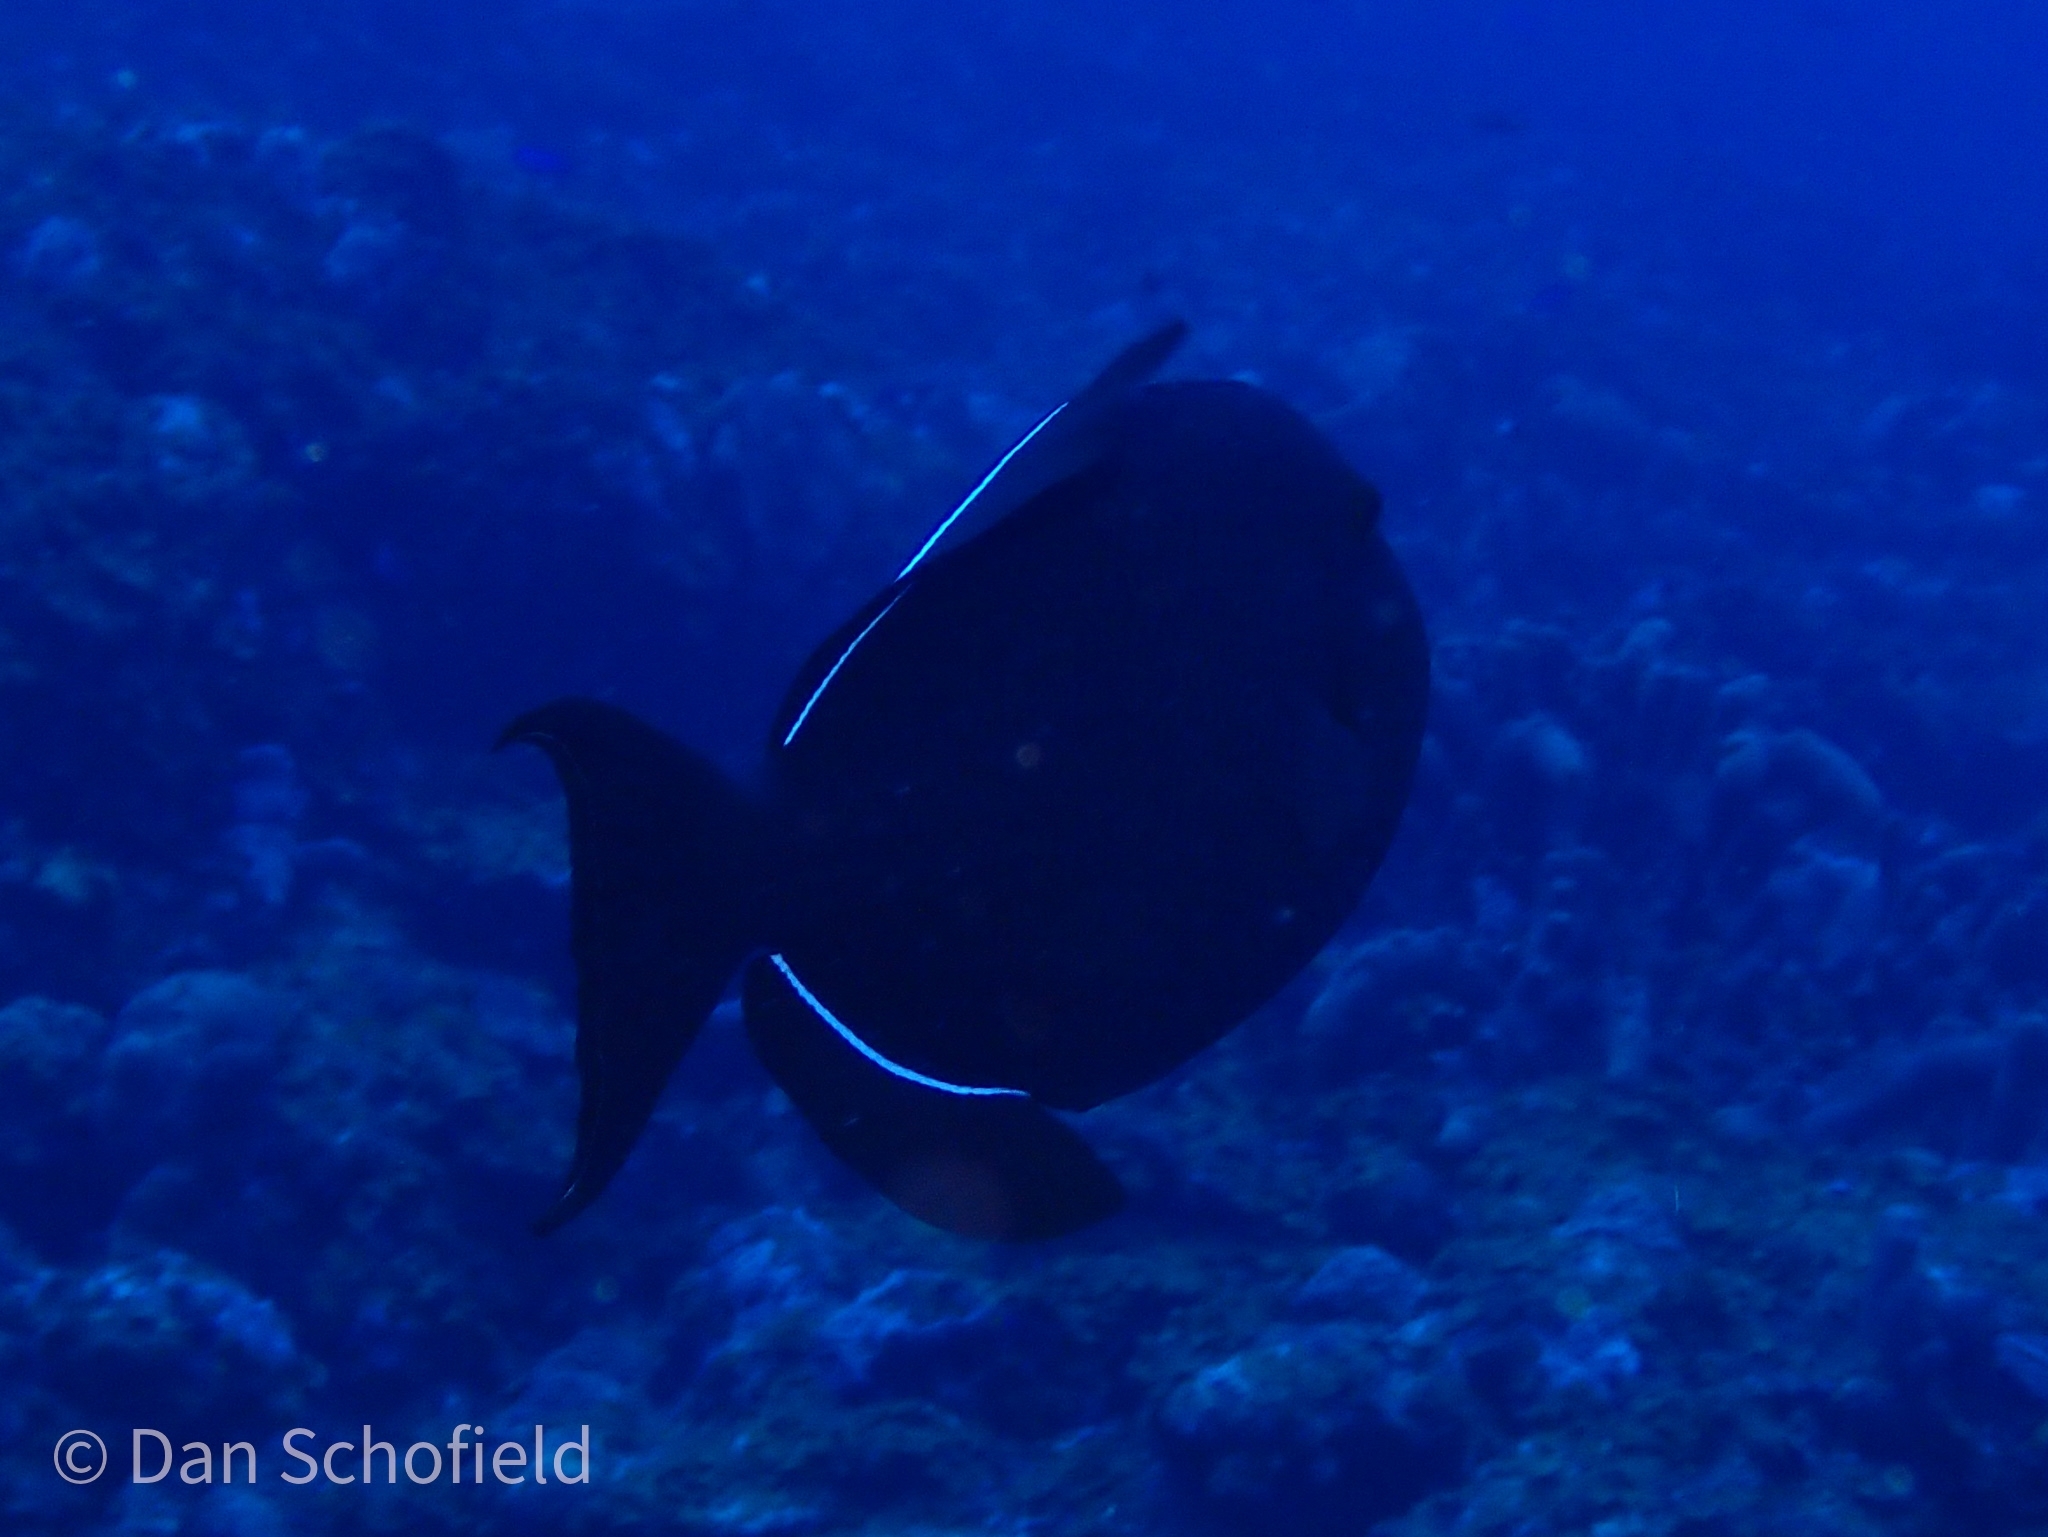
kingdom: Animalia
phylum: Chordata
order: Tetraodontiformes
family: Balistidae
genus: Melichthys
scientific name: Melichthys niger
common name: Black durgon
